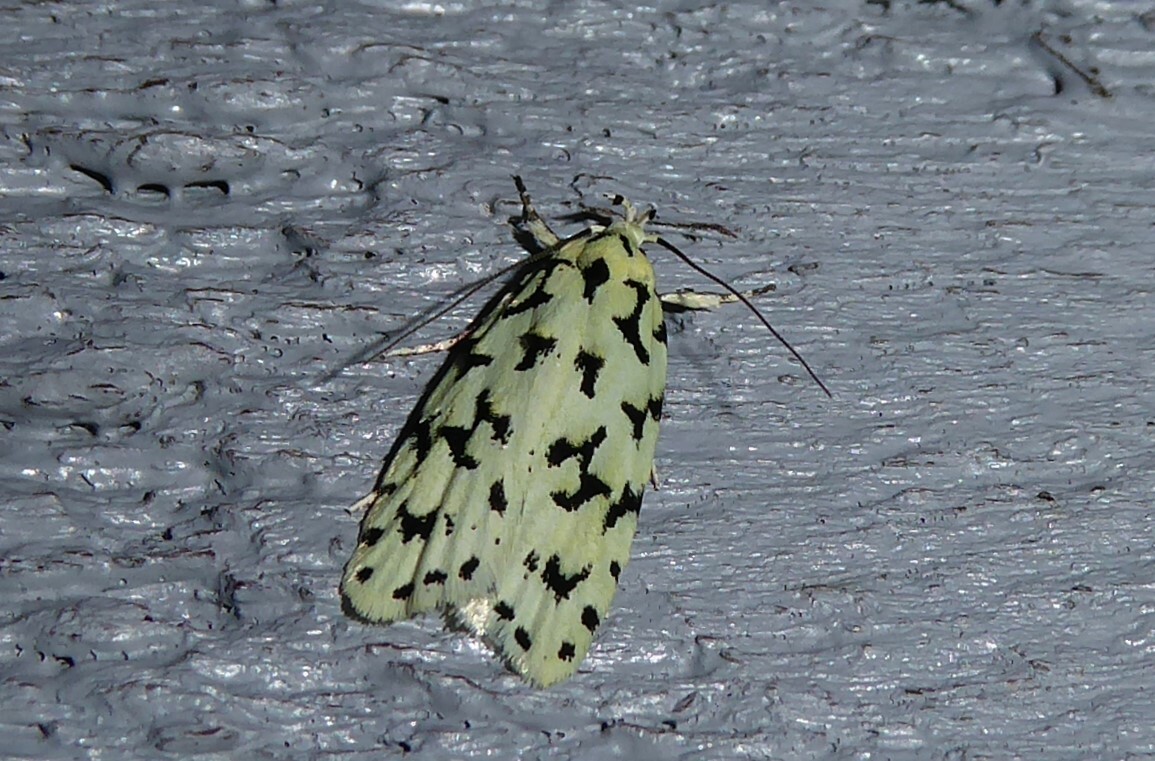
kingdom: Animalia
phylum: Arthropoda
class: Insecta
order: Lepidoptera
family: Oecophoridae
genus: Izatha
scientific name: Izatha huttoni
